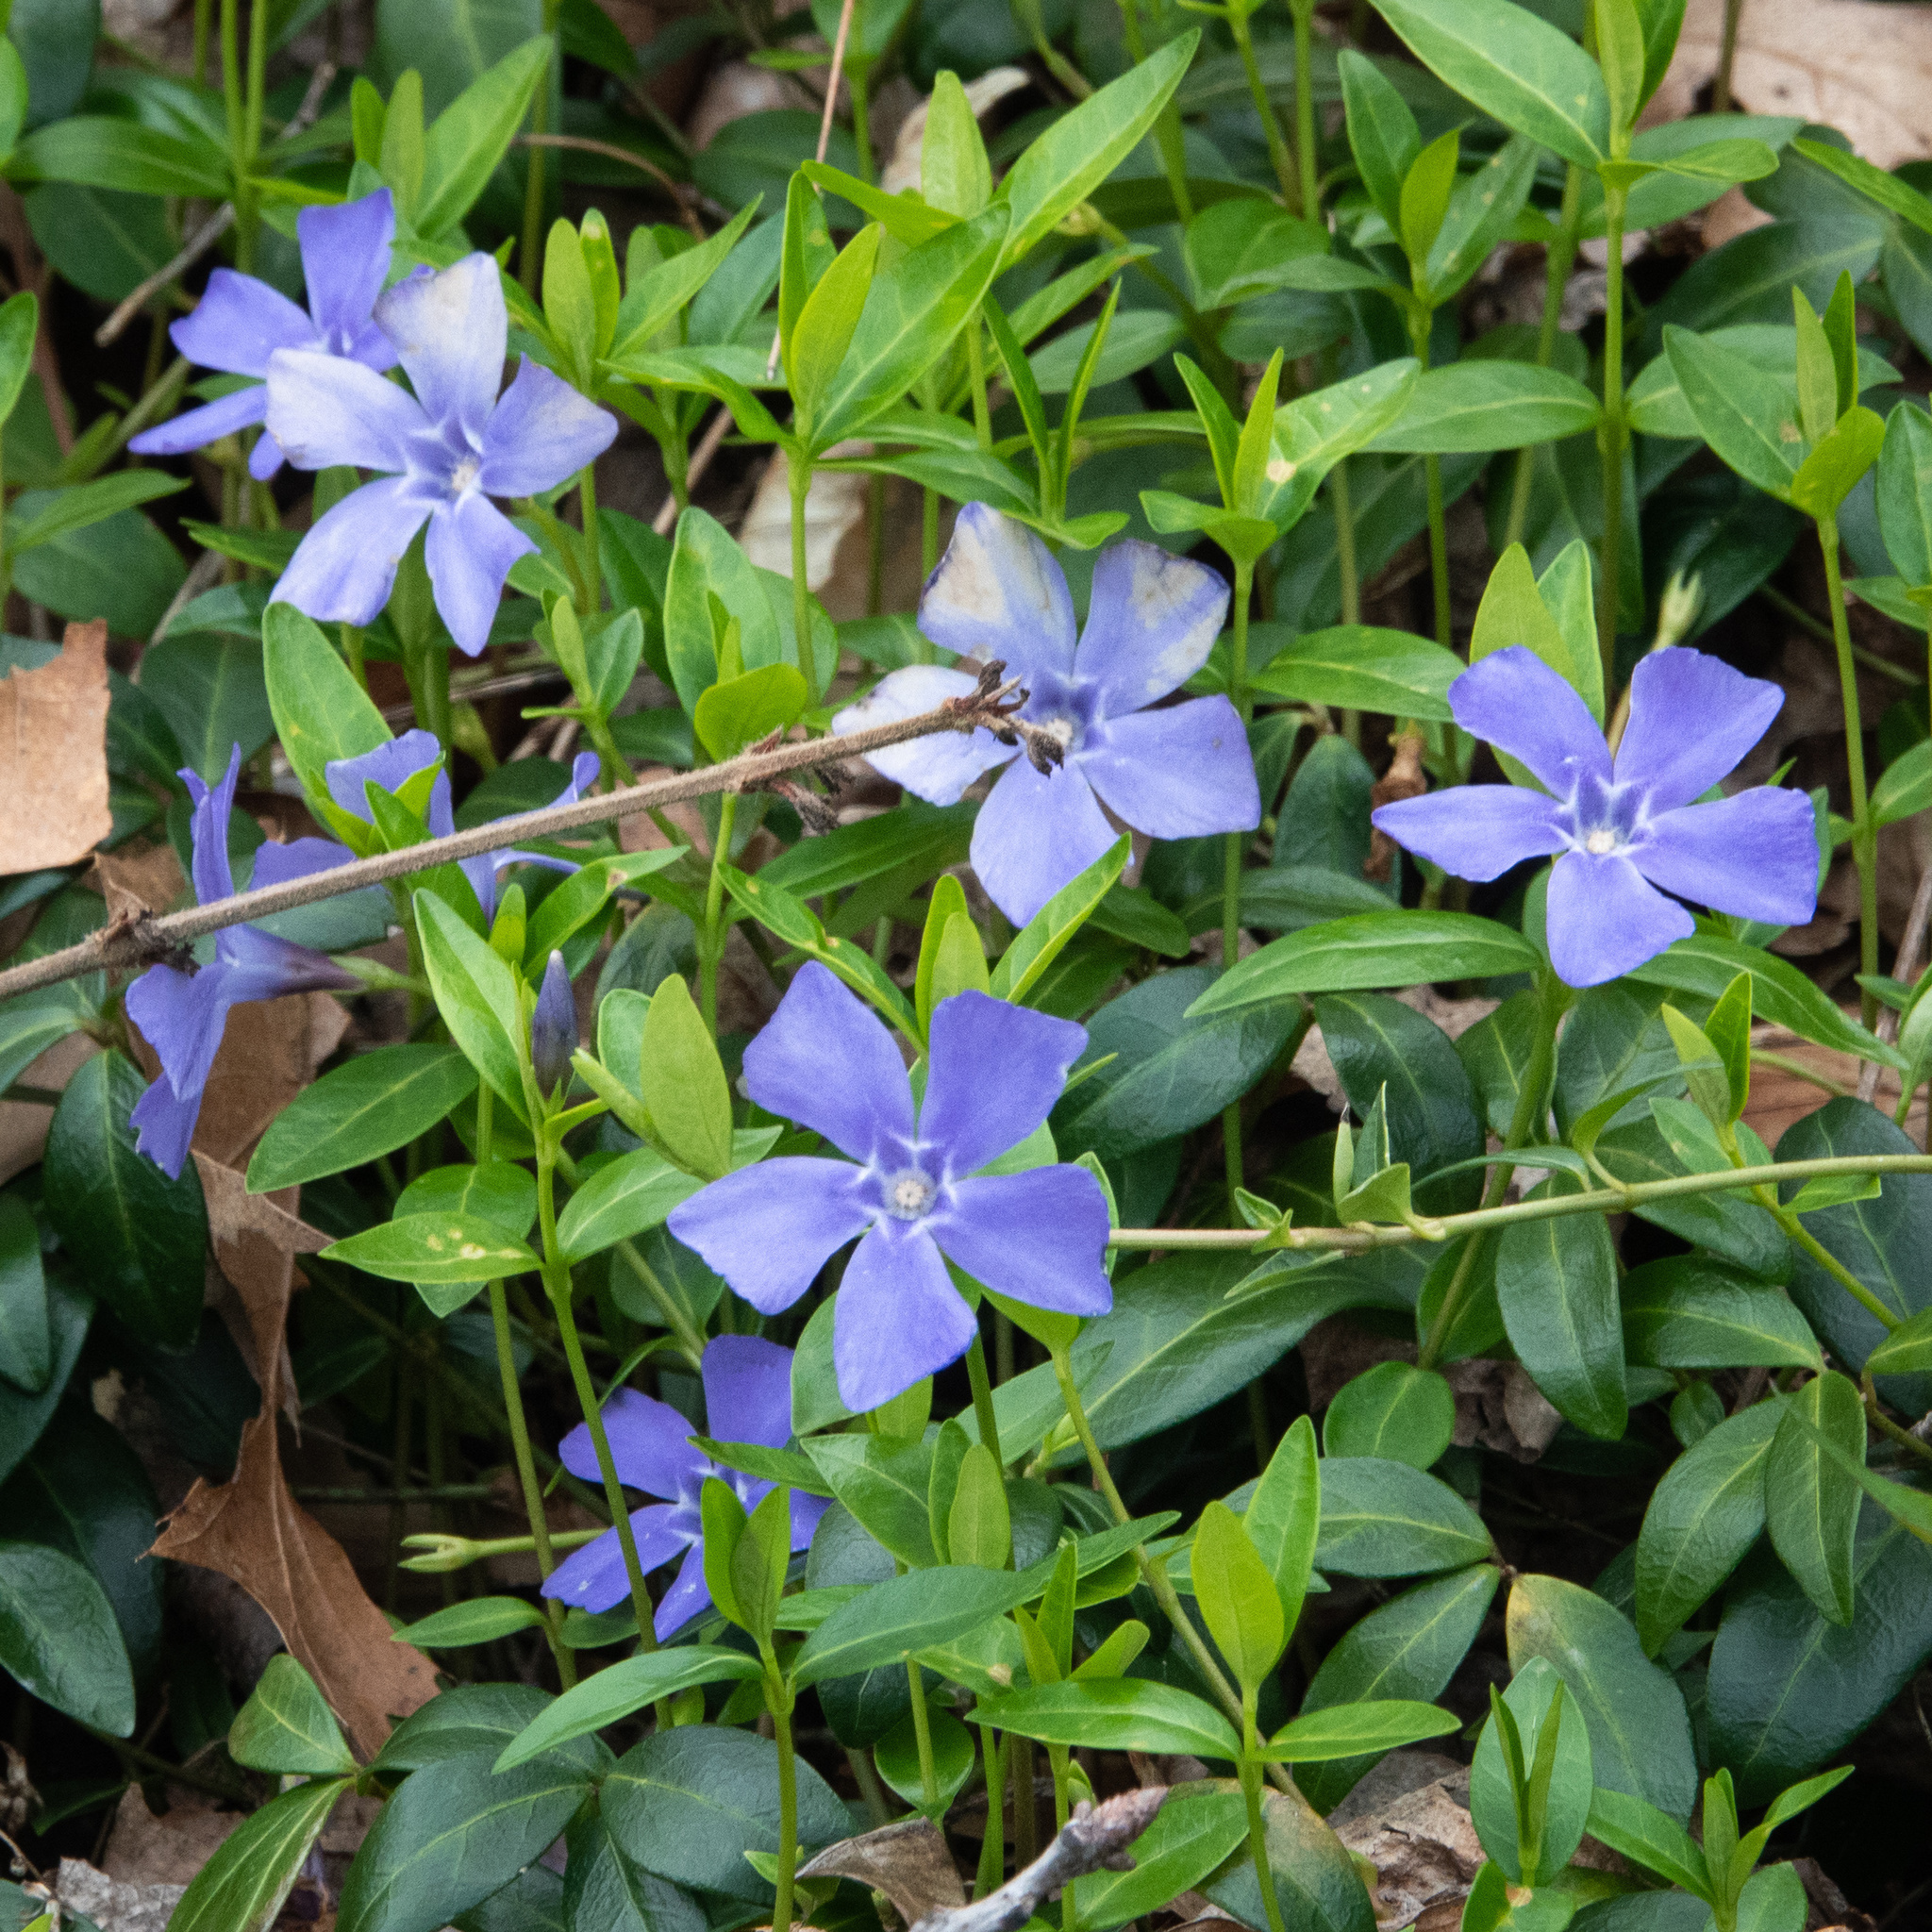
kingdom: Plantae
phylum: Tracheophyta
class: Magnoliopsida
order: Gentianales
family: Apocynaceae
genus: Vinca
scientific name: Vinca minor
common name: Lesser periwinkle
